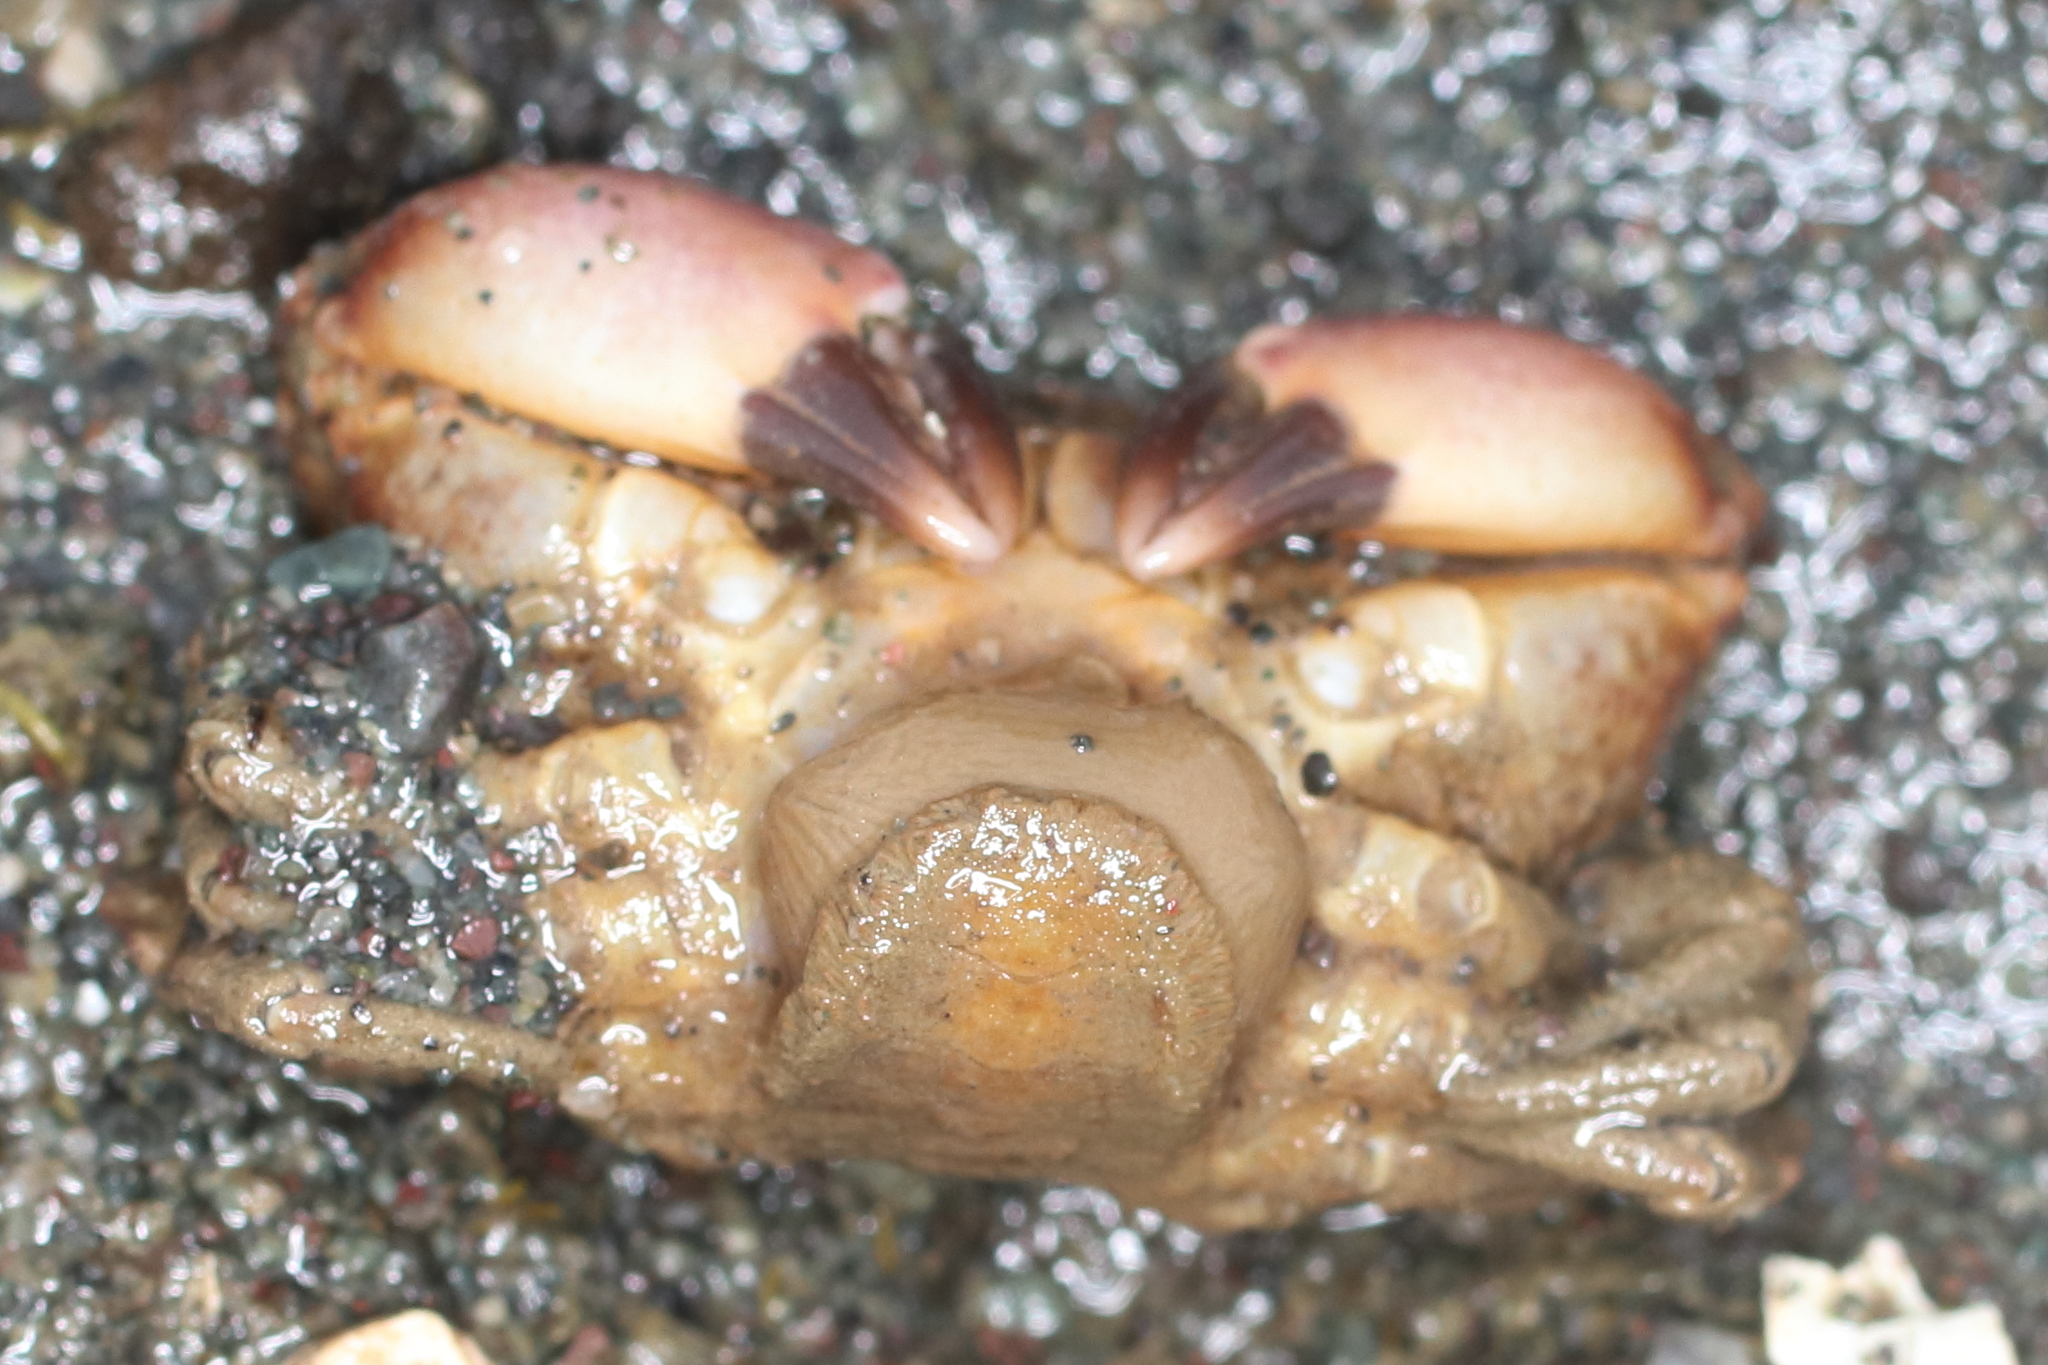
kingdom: Animalia
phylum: Arthropoda
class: Malacostraca
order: Decapoda
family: Panopeidae
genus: Lophopanopeus
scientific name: Lophopanopeus bellus
